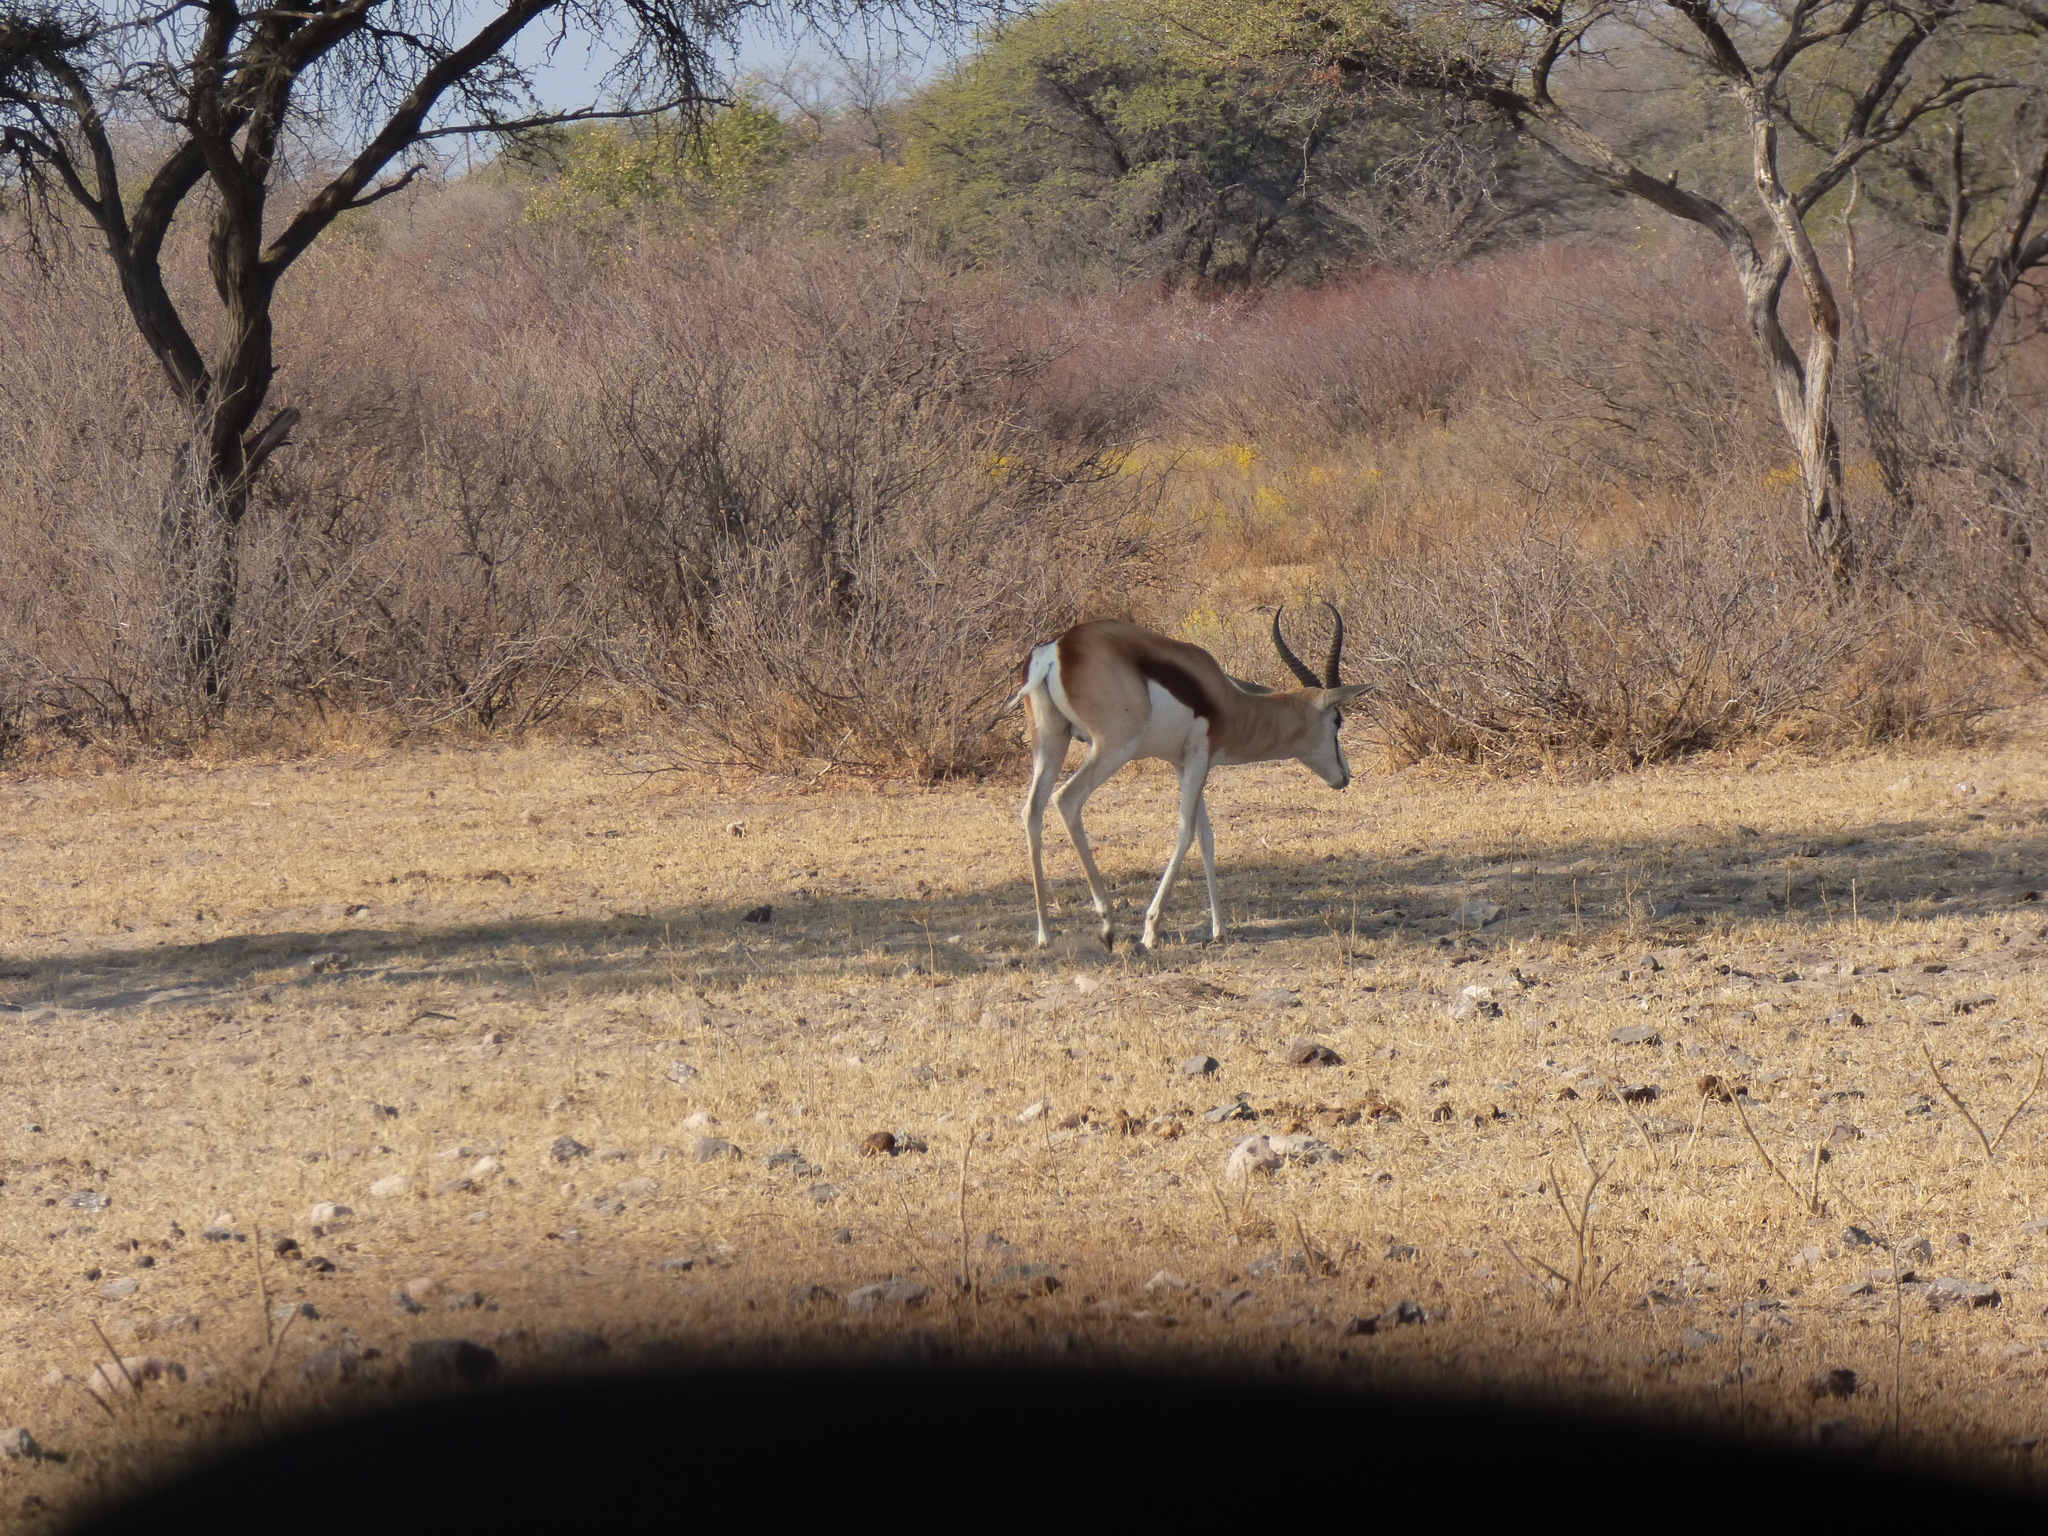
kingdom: Animalia
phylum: Chordata
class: Mammalia
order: Artiodactyla
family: Bovidae
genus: Antidorcas
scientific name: Antidorcas marsupialis
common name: Springbok
